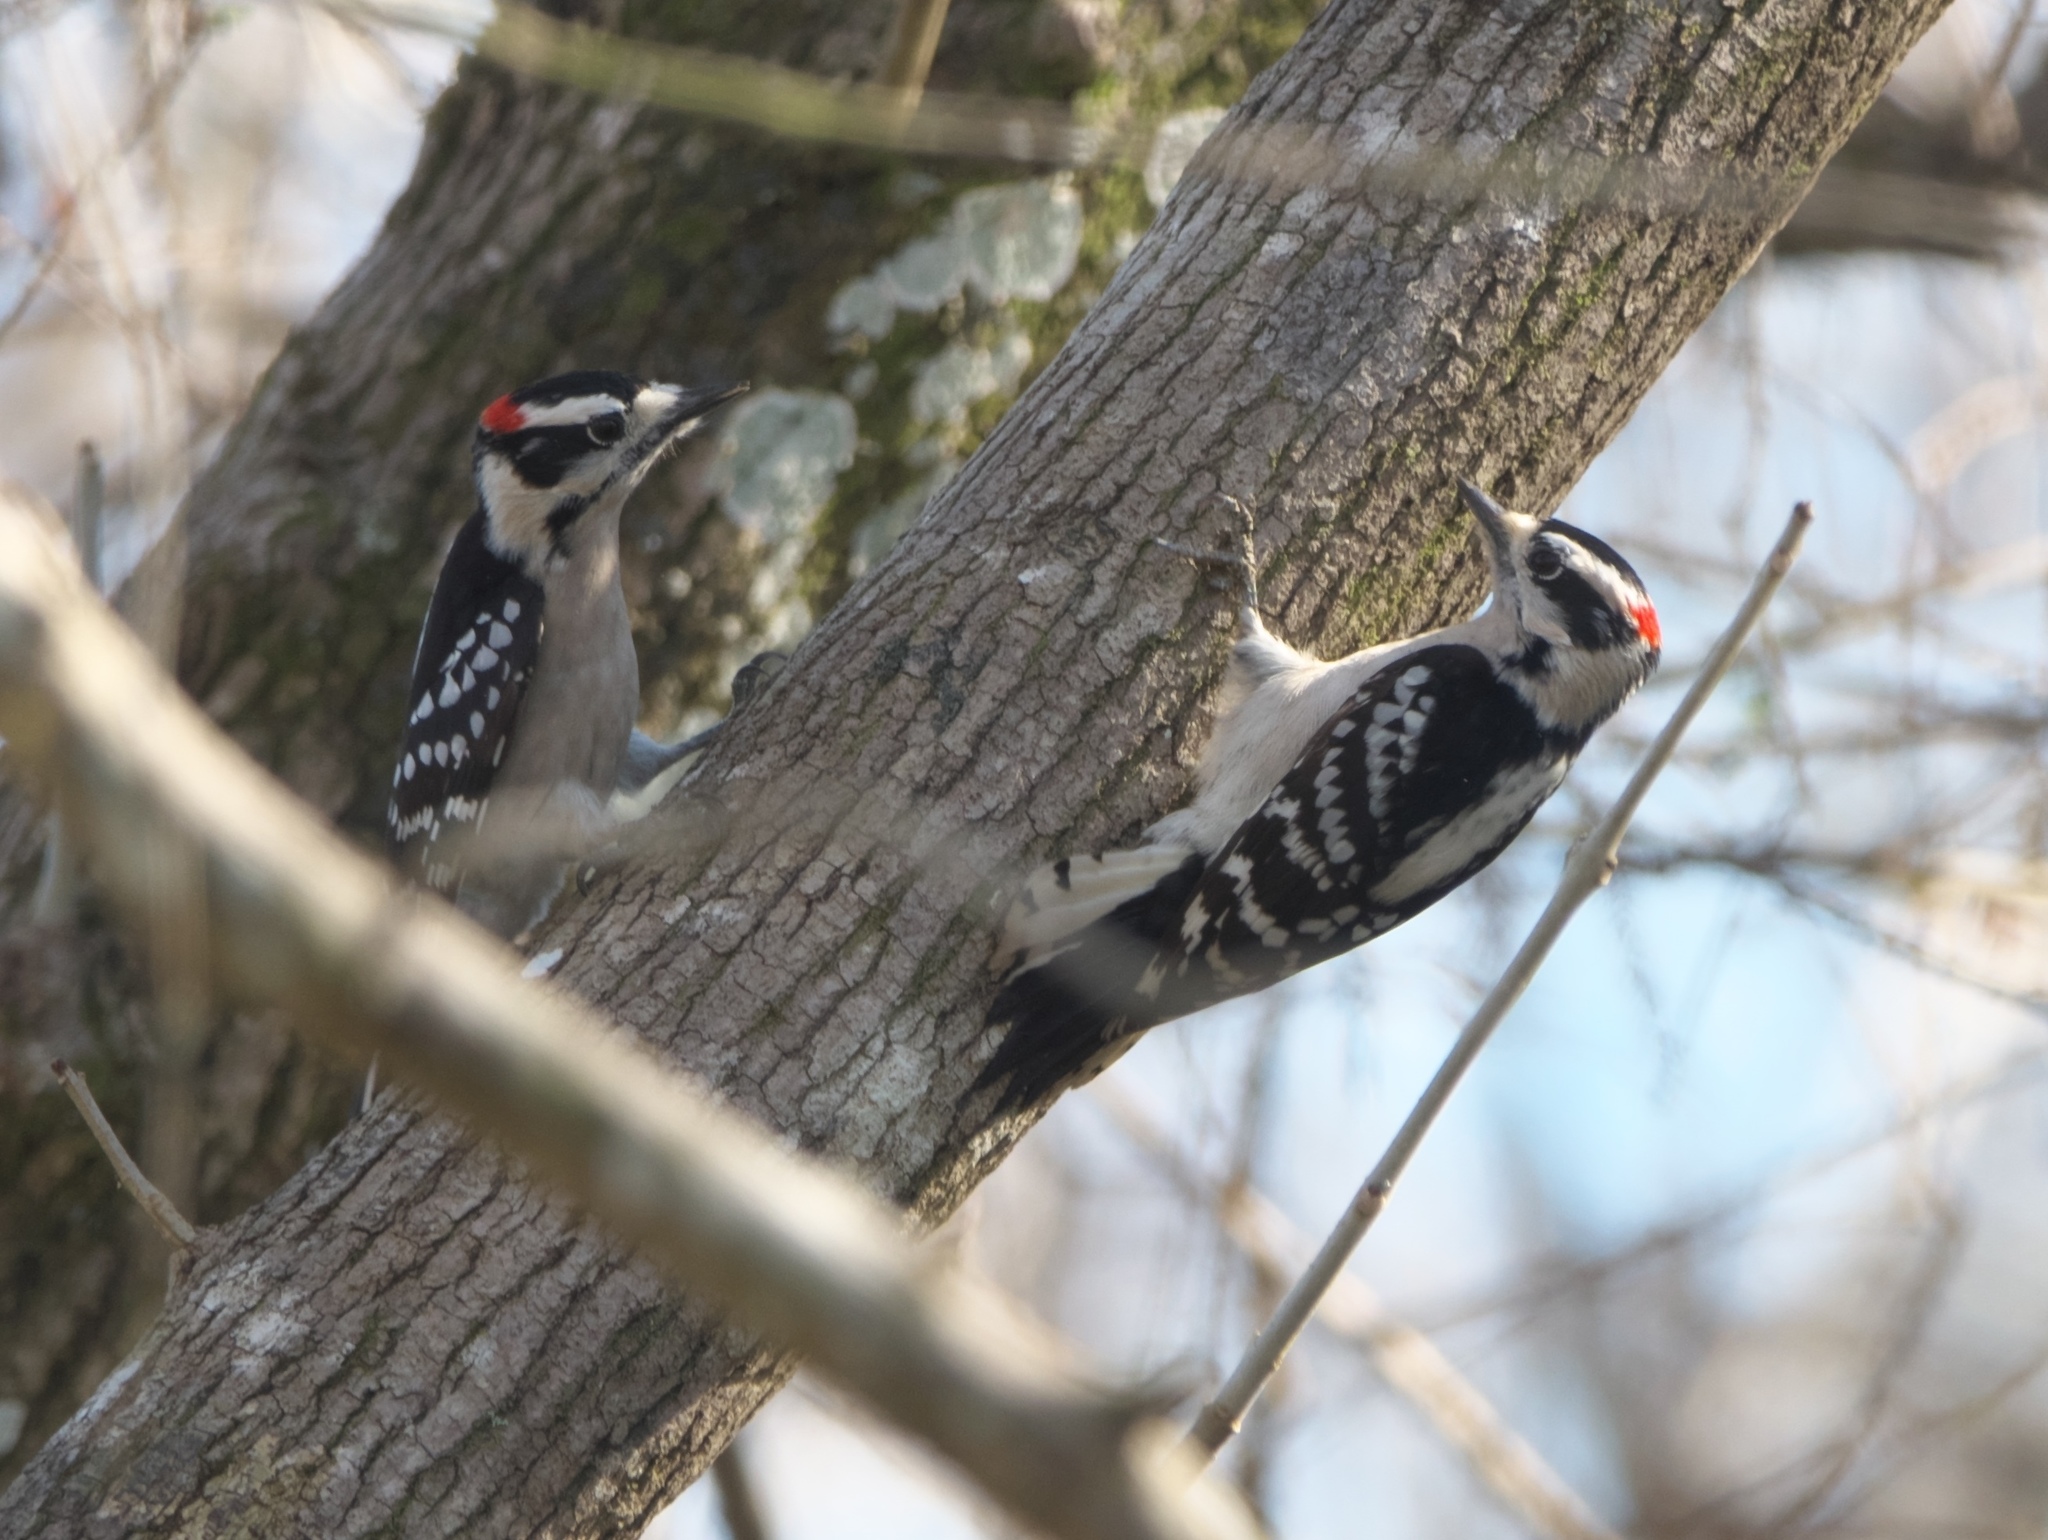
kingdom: Animalia
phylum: Chordata
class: Aves
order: Piciformes
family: Picidae
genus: Dryobates
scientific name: Dryobates pubescens
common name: Downy woodpecker
